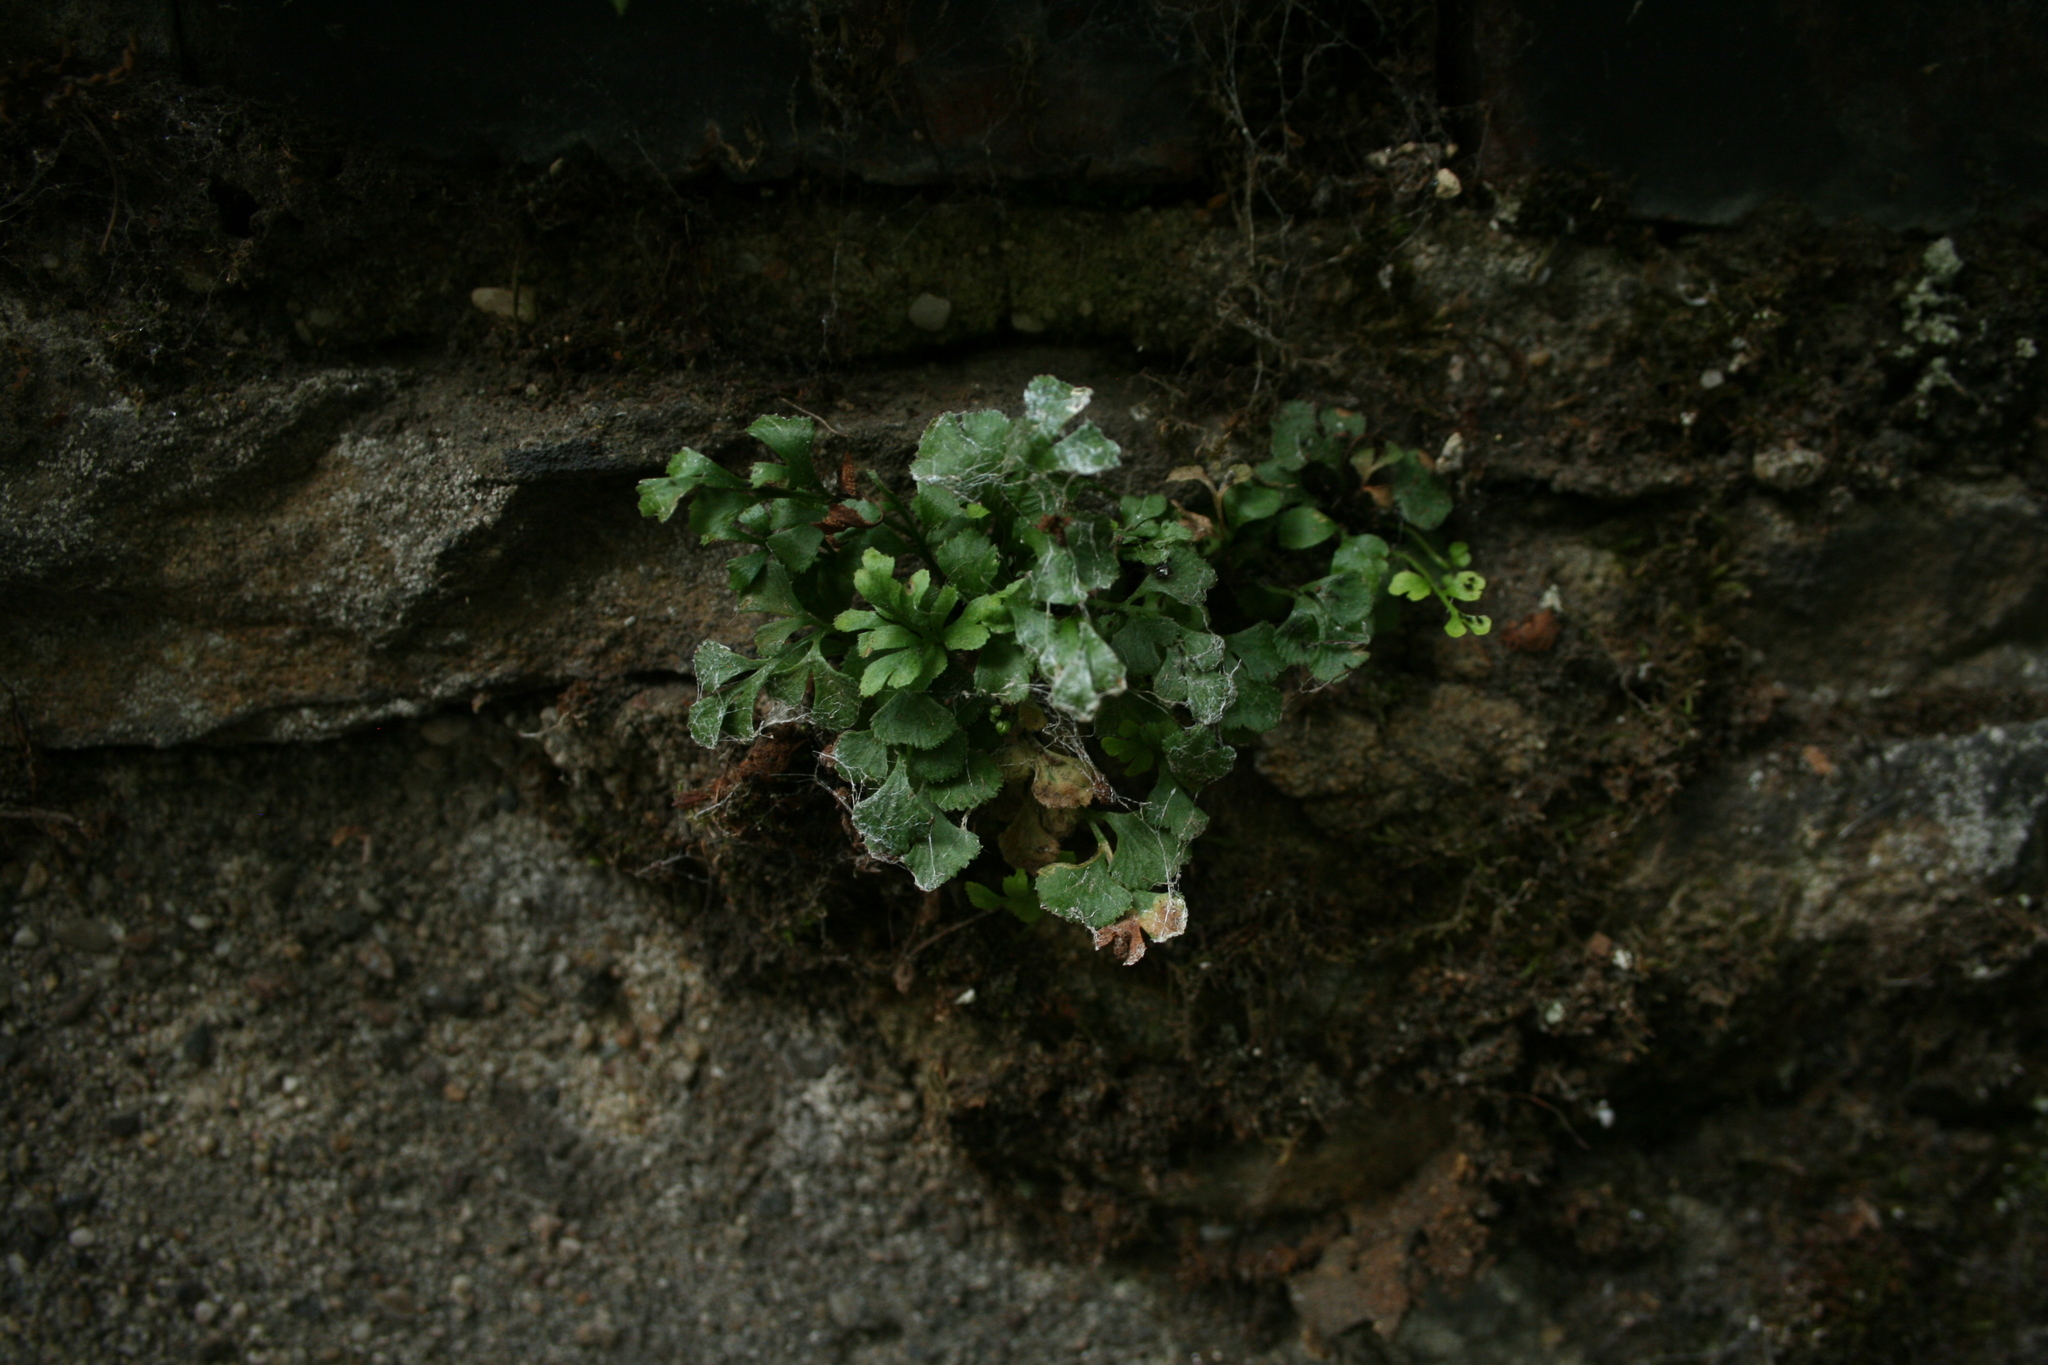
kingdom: Plantae
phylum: Tracheophyta
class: Polypodiopsida
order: Polypodiales
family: Aspleniaceae
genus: Asplenium
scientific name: Asplenium ruta-muraria
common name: Wall-rue
